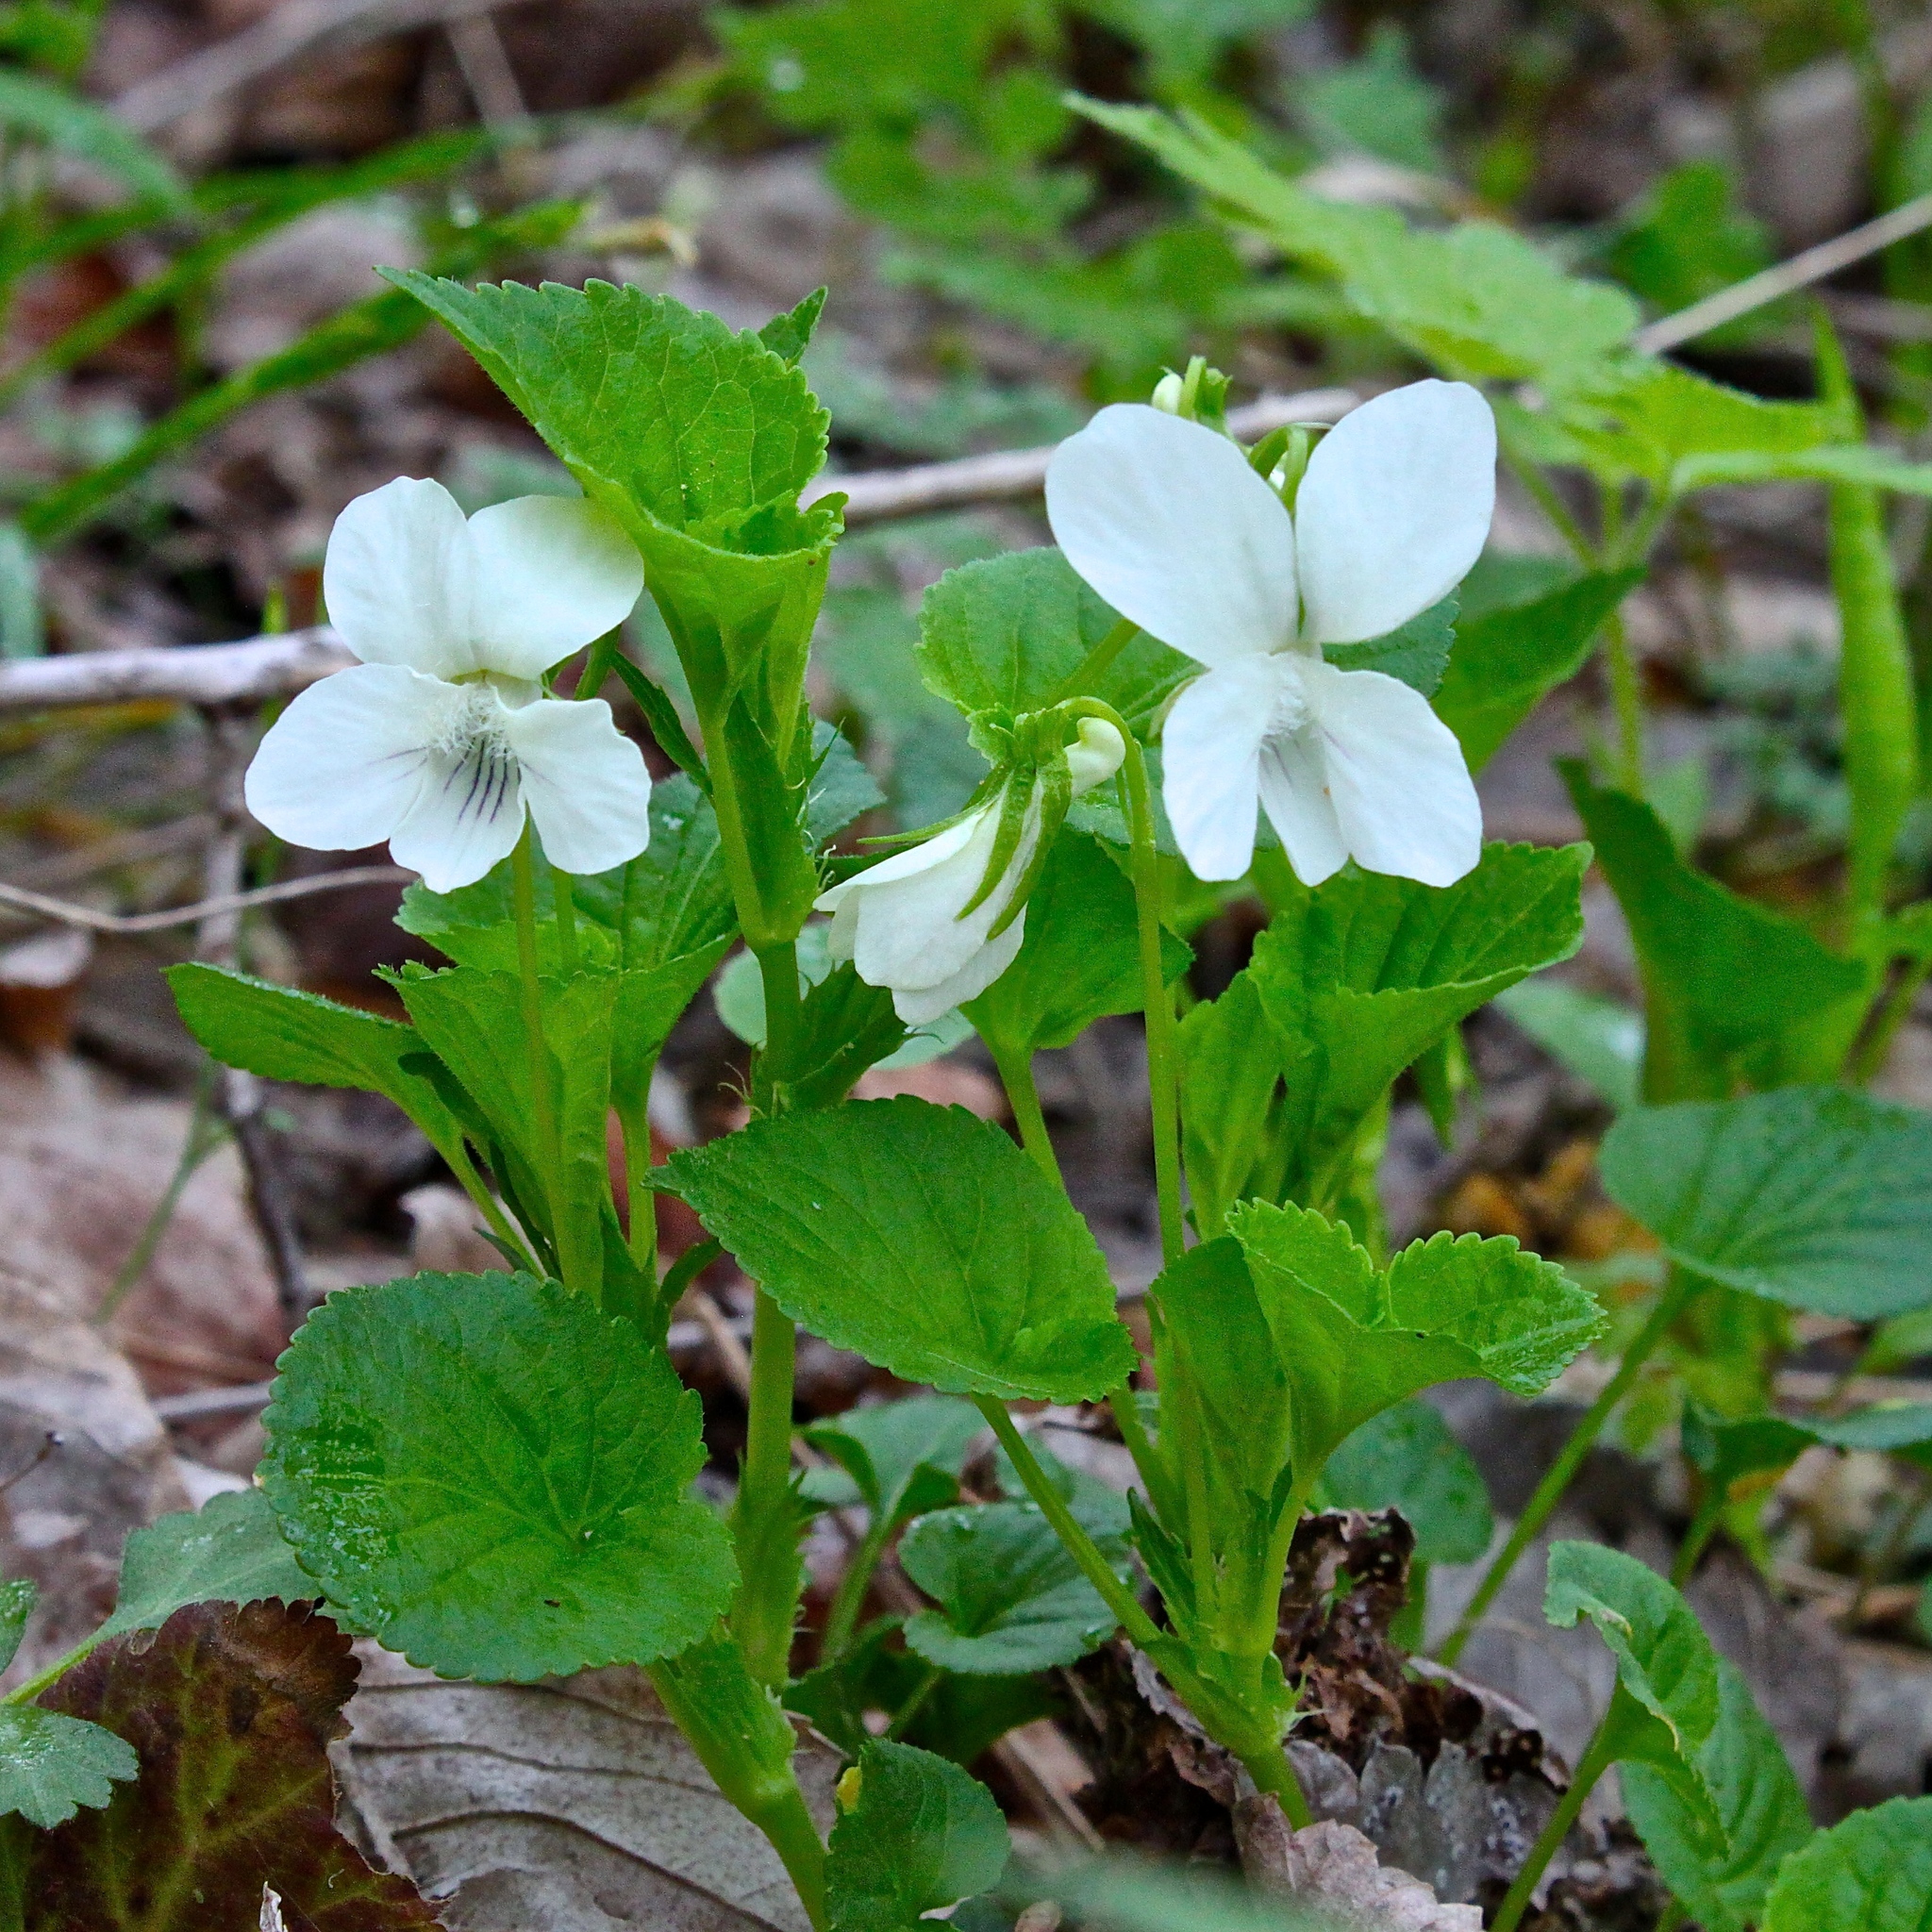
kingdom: Plantae
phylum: Tracheophyta
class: Magnoliopsida
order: Malpighiales
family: Violaceae
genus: Viola
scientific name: Viola striata
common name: Cream violet
